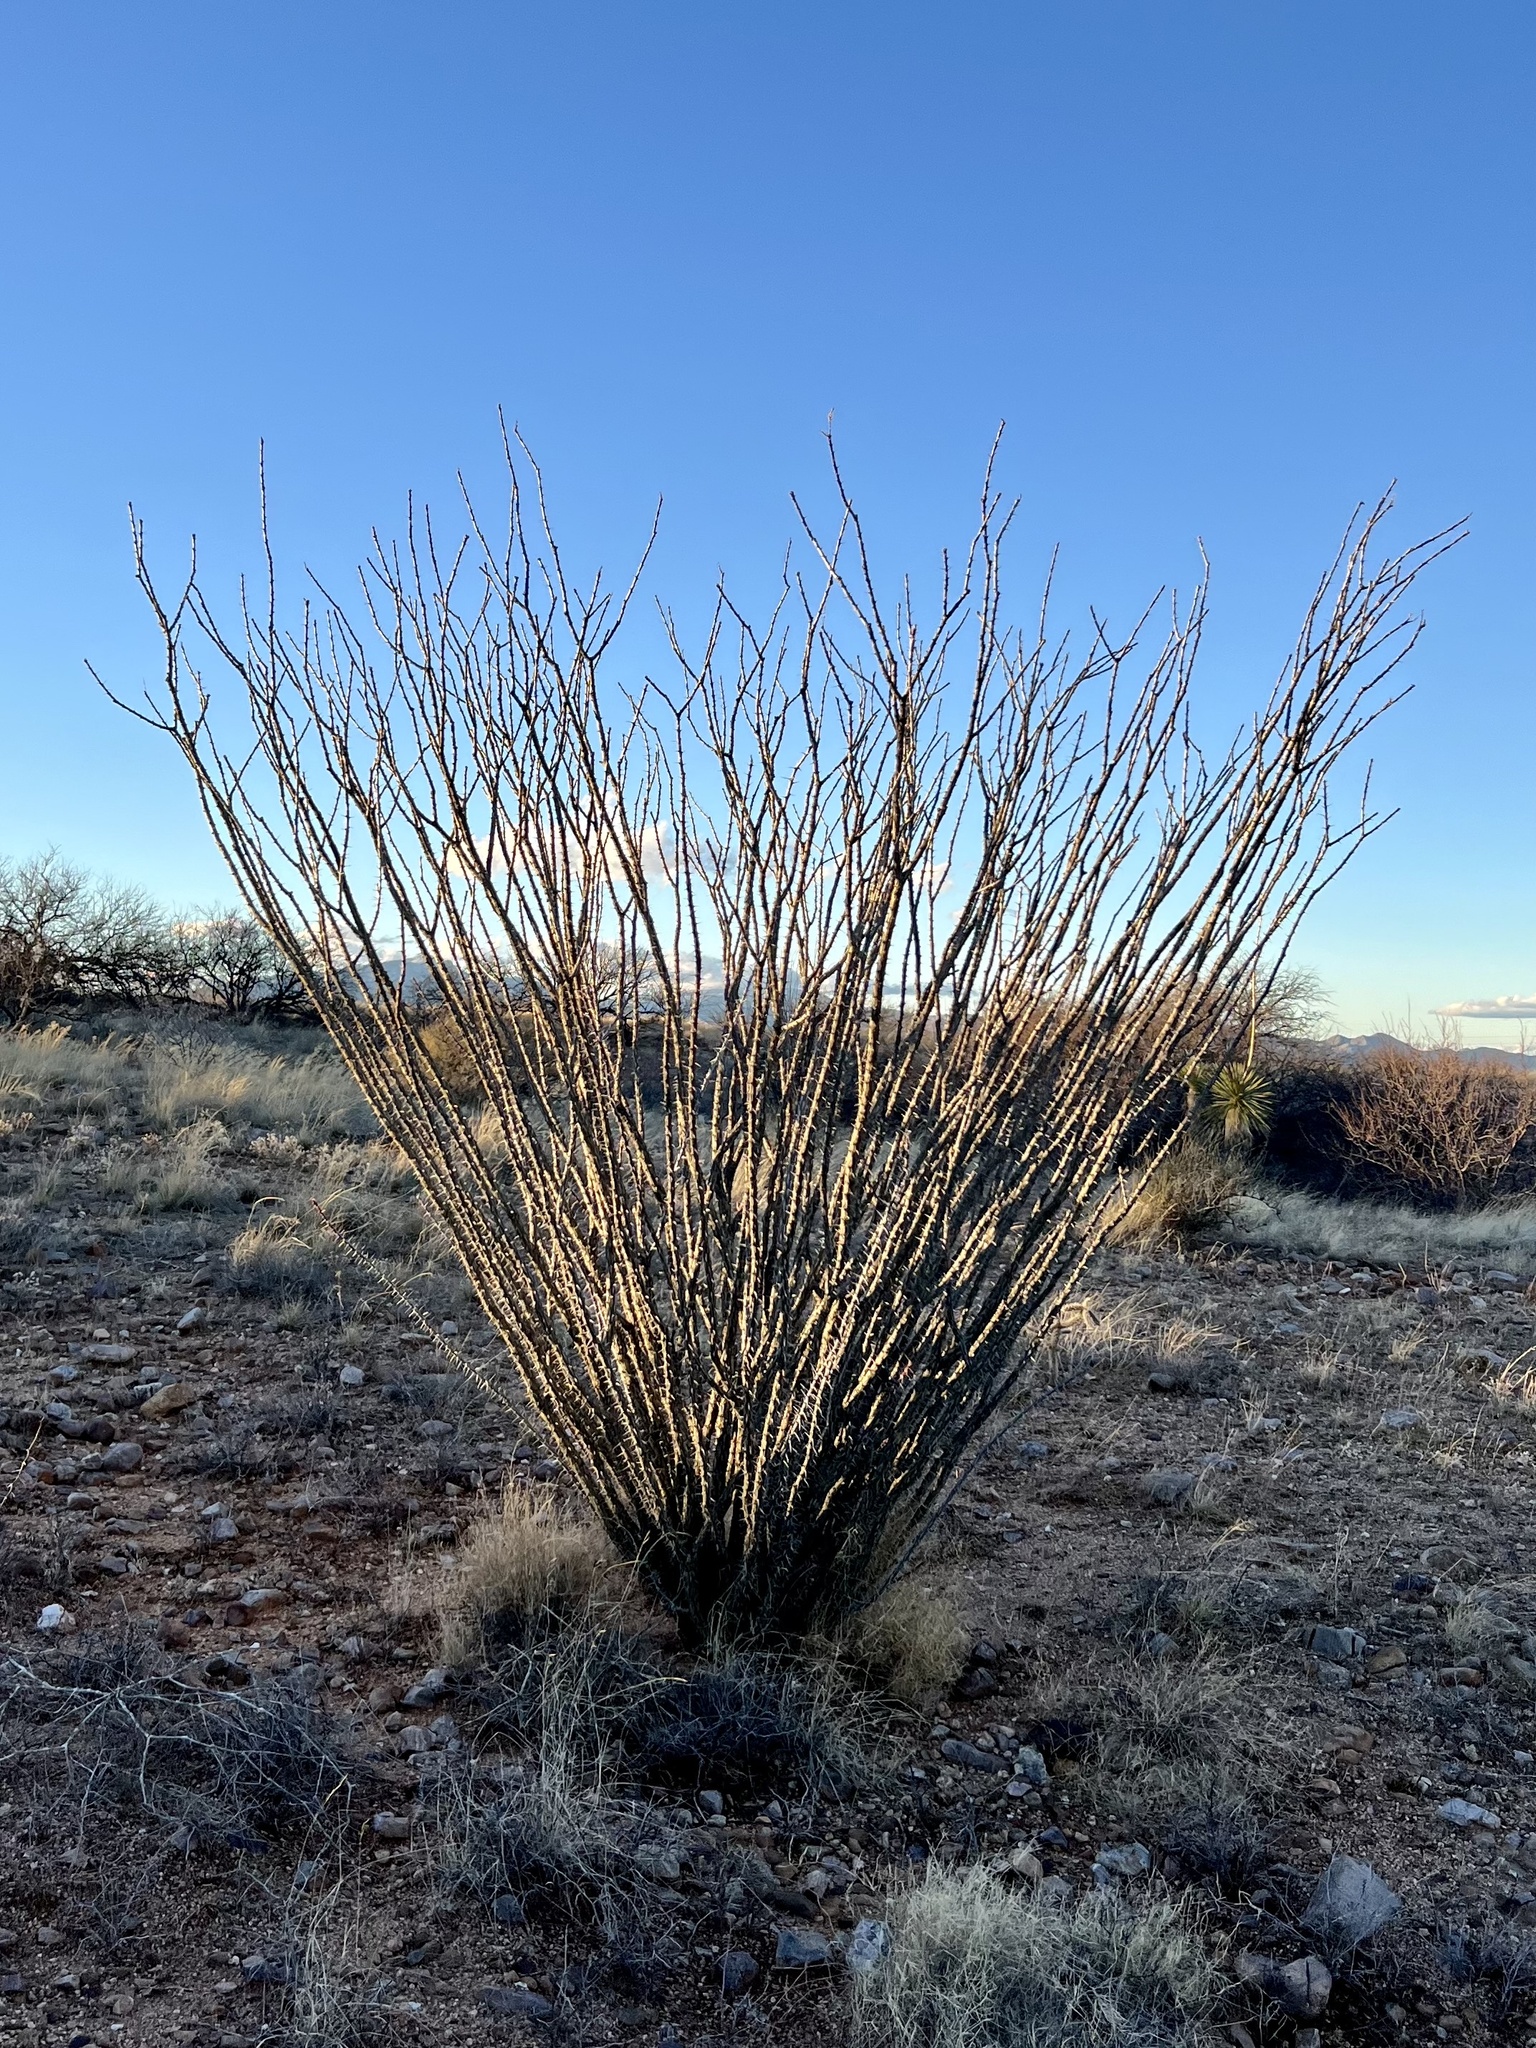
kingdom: Plantae
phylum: Tracheophyta
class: Magnoliopsida
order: Ericales
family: Fouquieriaceae
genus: Fouquieria
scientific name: Fouquieria splendens
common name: Vine-cactus
